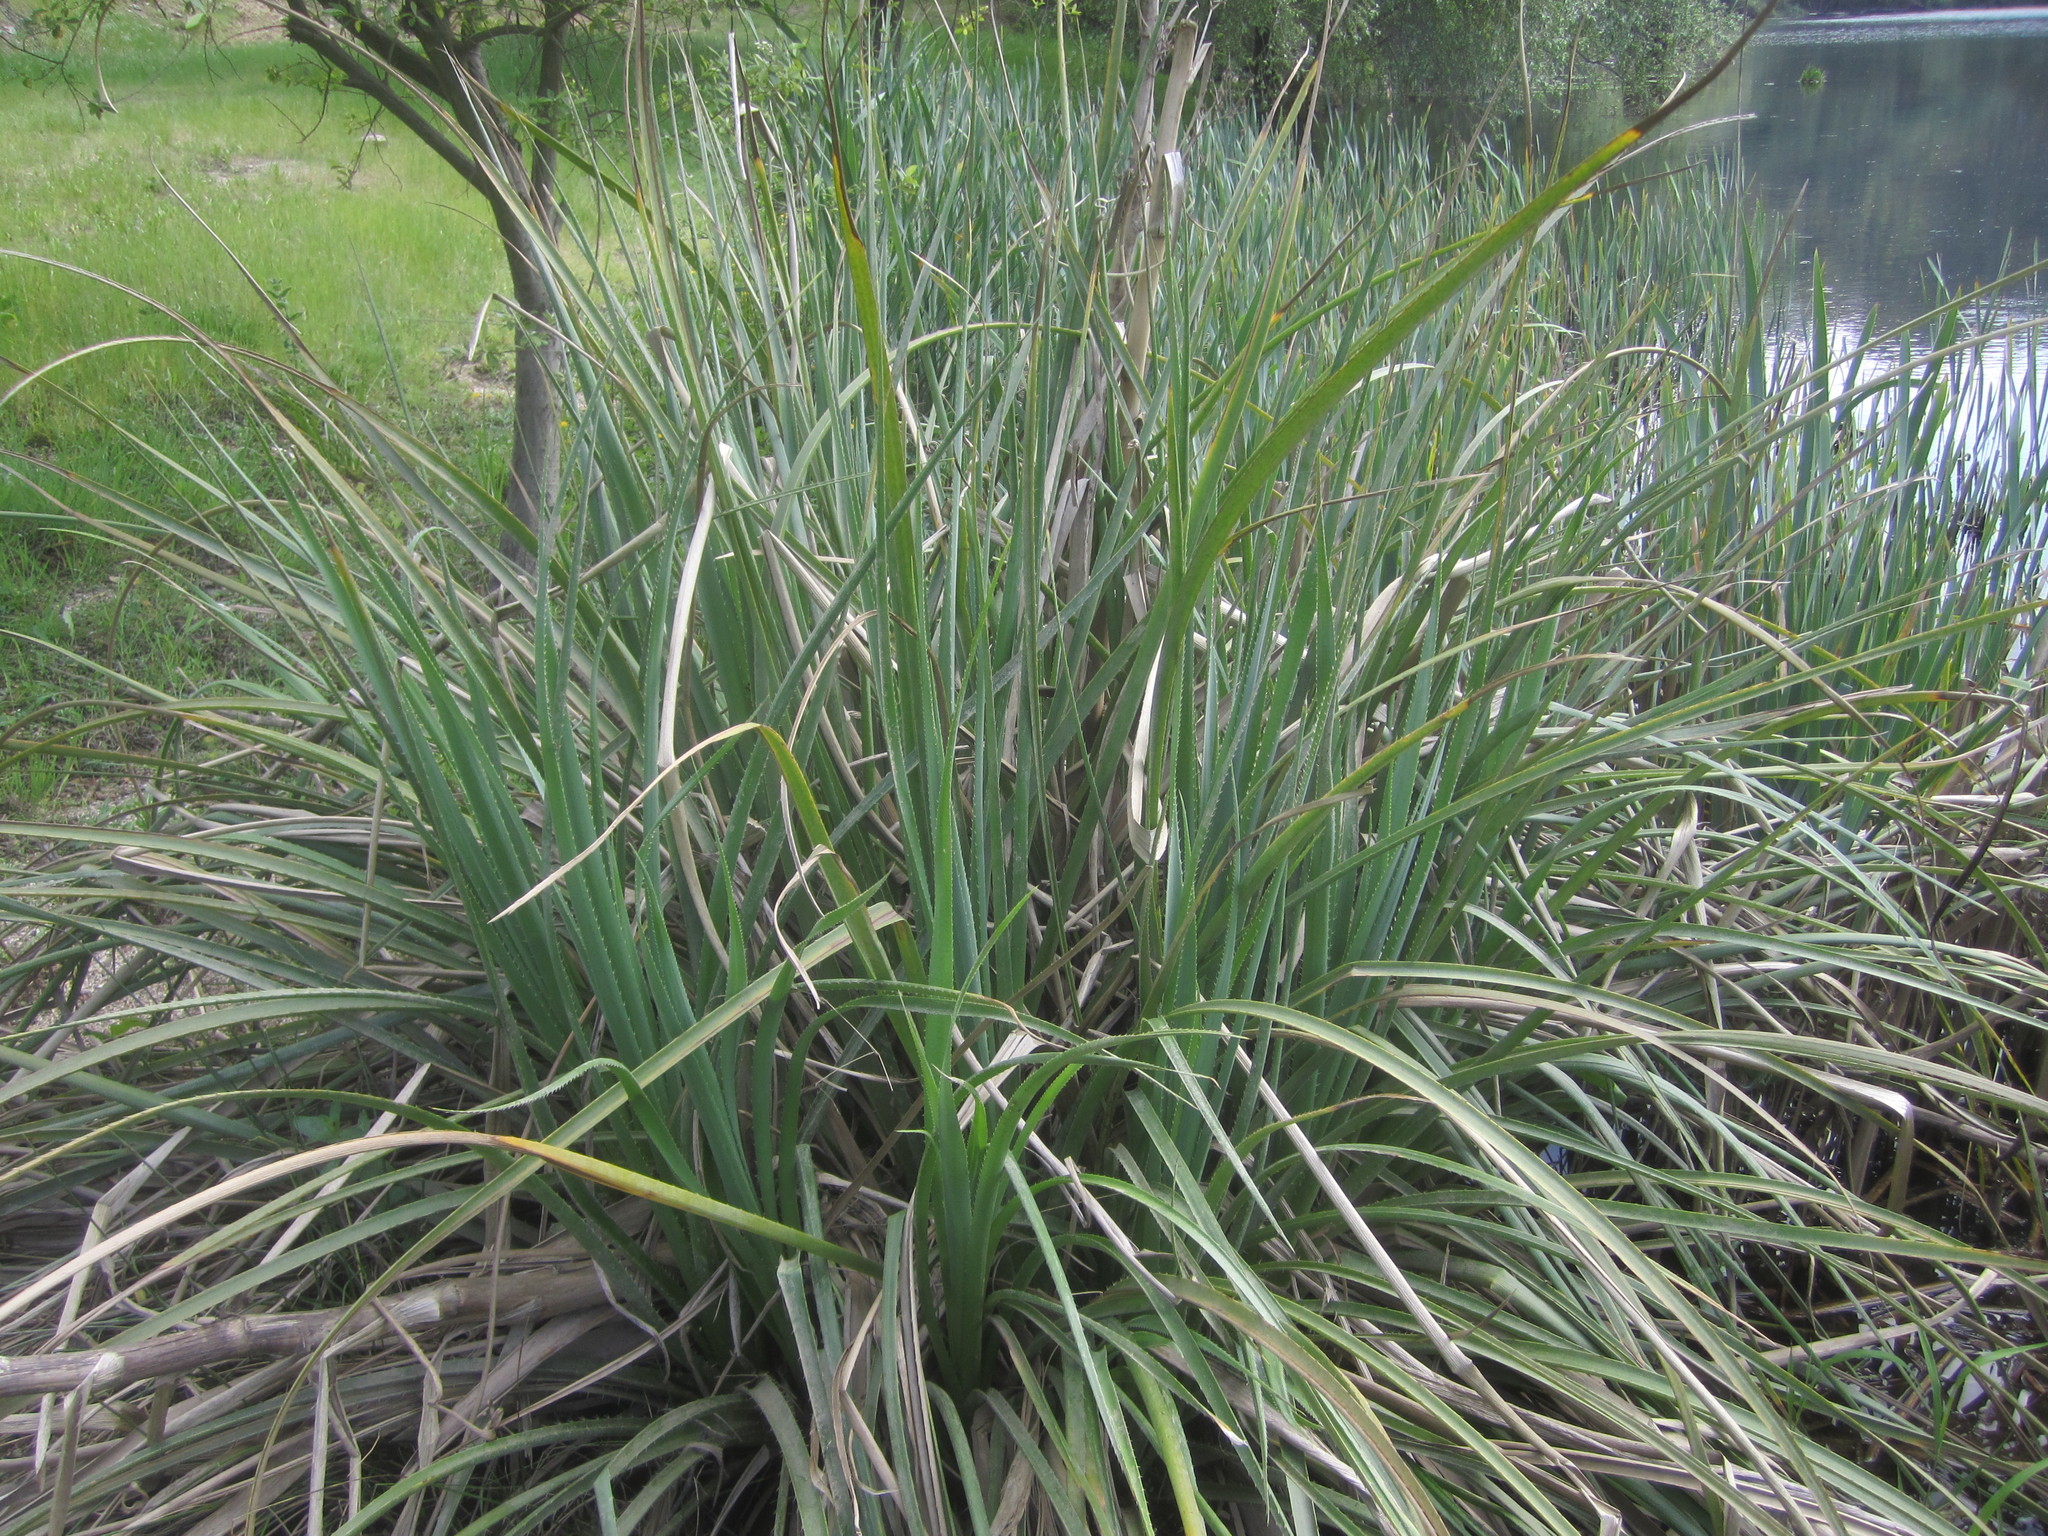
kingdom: Plantae
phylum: Tracheophyta
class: Magnoliopsida
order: Apiales
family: Apiaceae
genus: Eryngium
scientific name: Eryngium pandanifolium
